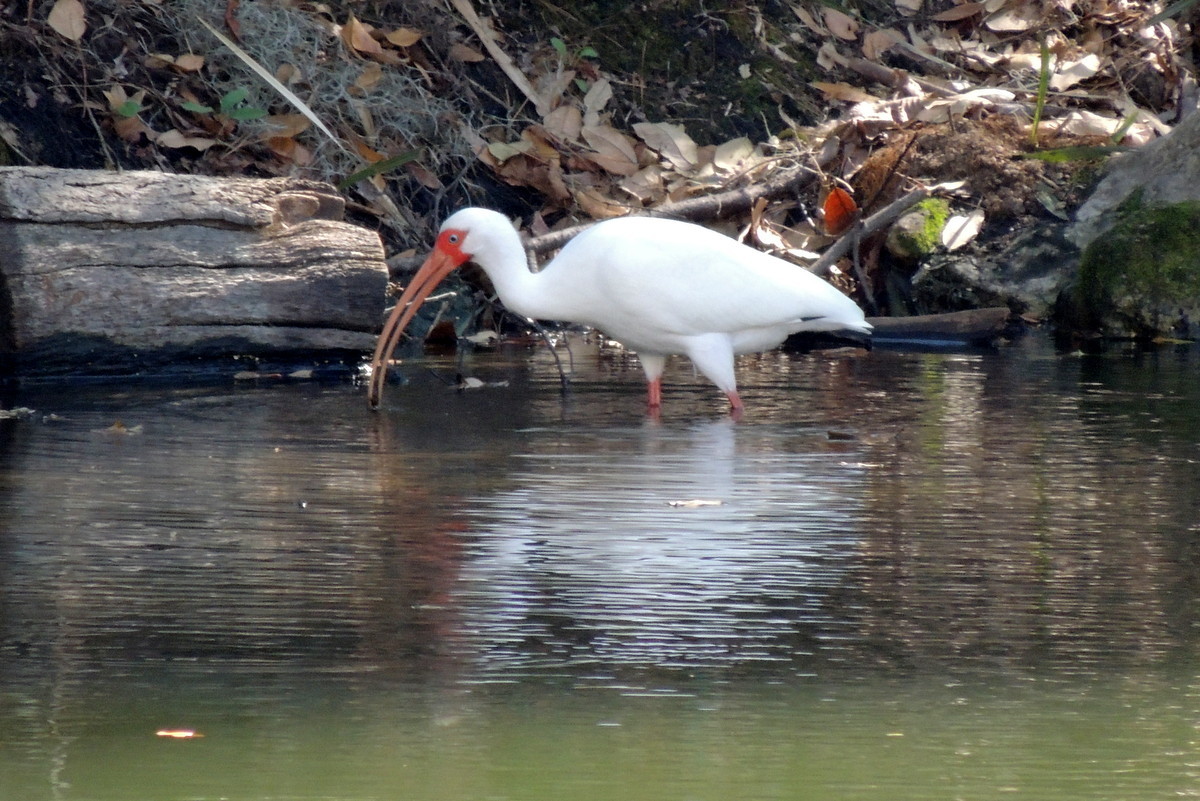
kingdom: Animalia
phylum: Chordata
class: Aves
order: Pelecaniformes
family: Threskiornithidae
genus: Eudocimus
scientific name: Eudocimus albus
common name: White ibis
